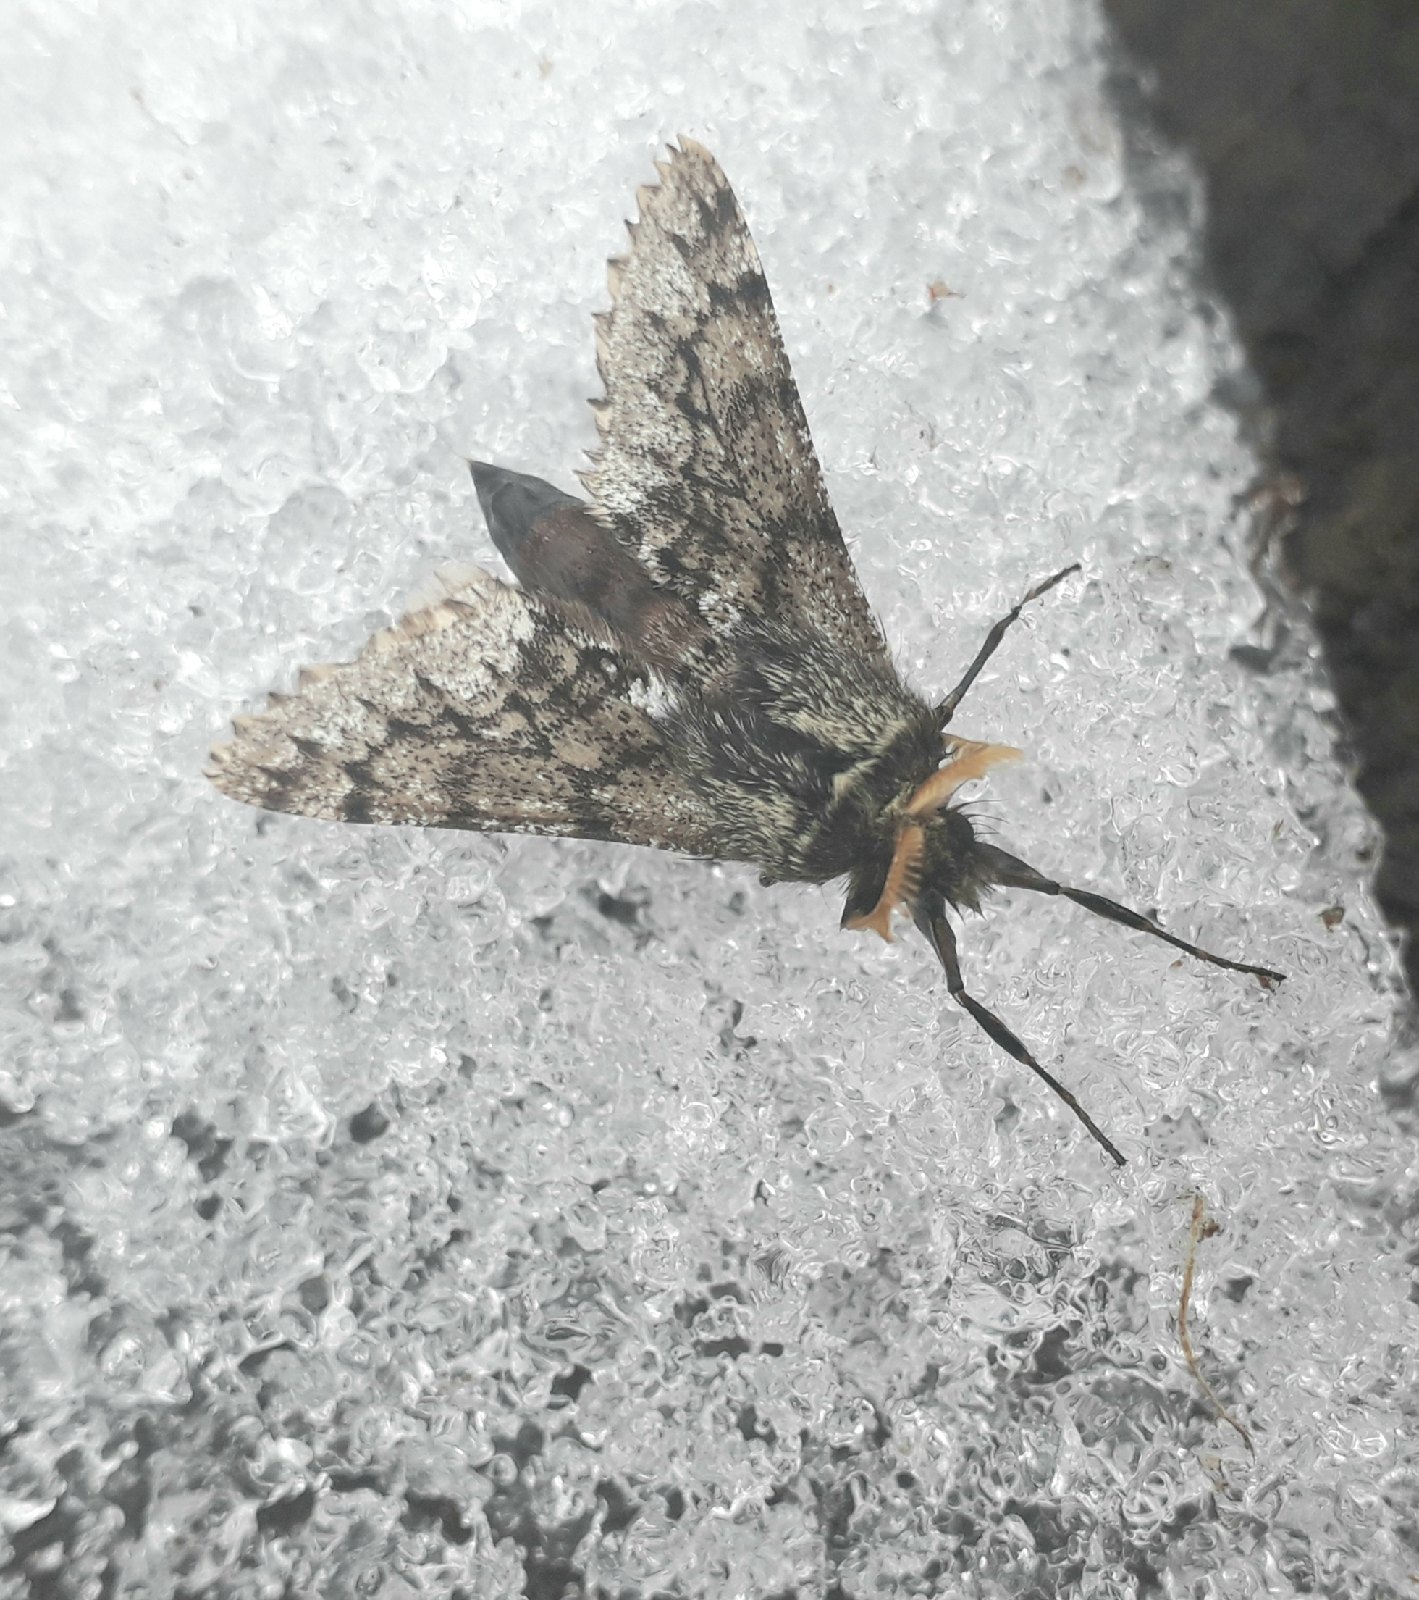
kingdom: Animalia
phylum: Arthropoda
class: Insecta
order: Lepidoptera
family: Geometridae
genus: Apocheima
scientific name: Apocheima hispidaria
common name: Small brindled beauty
